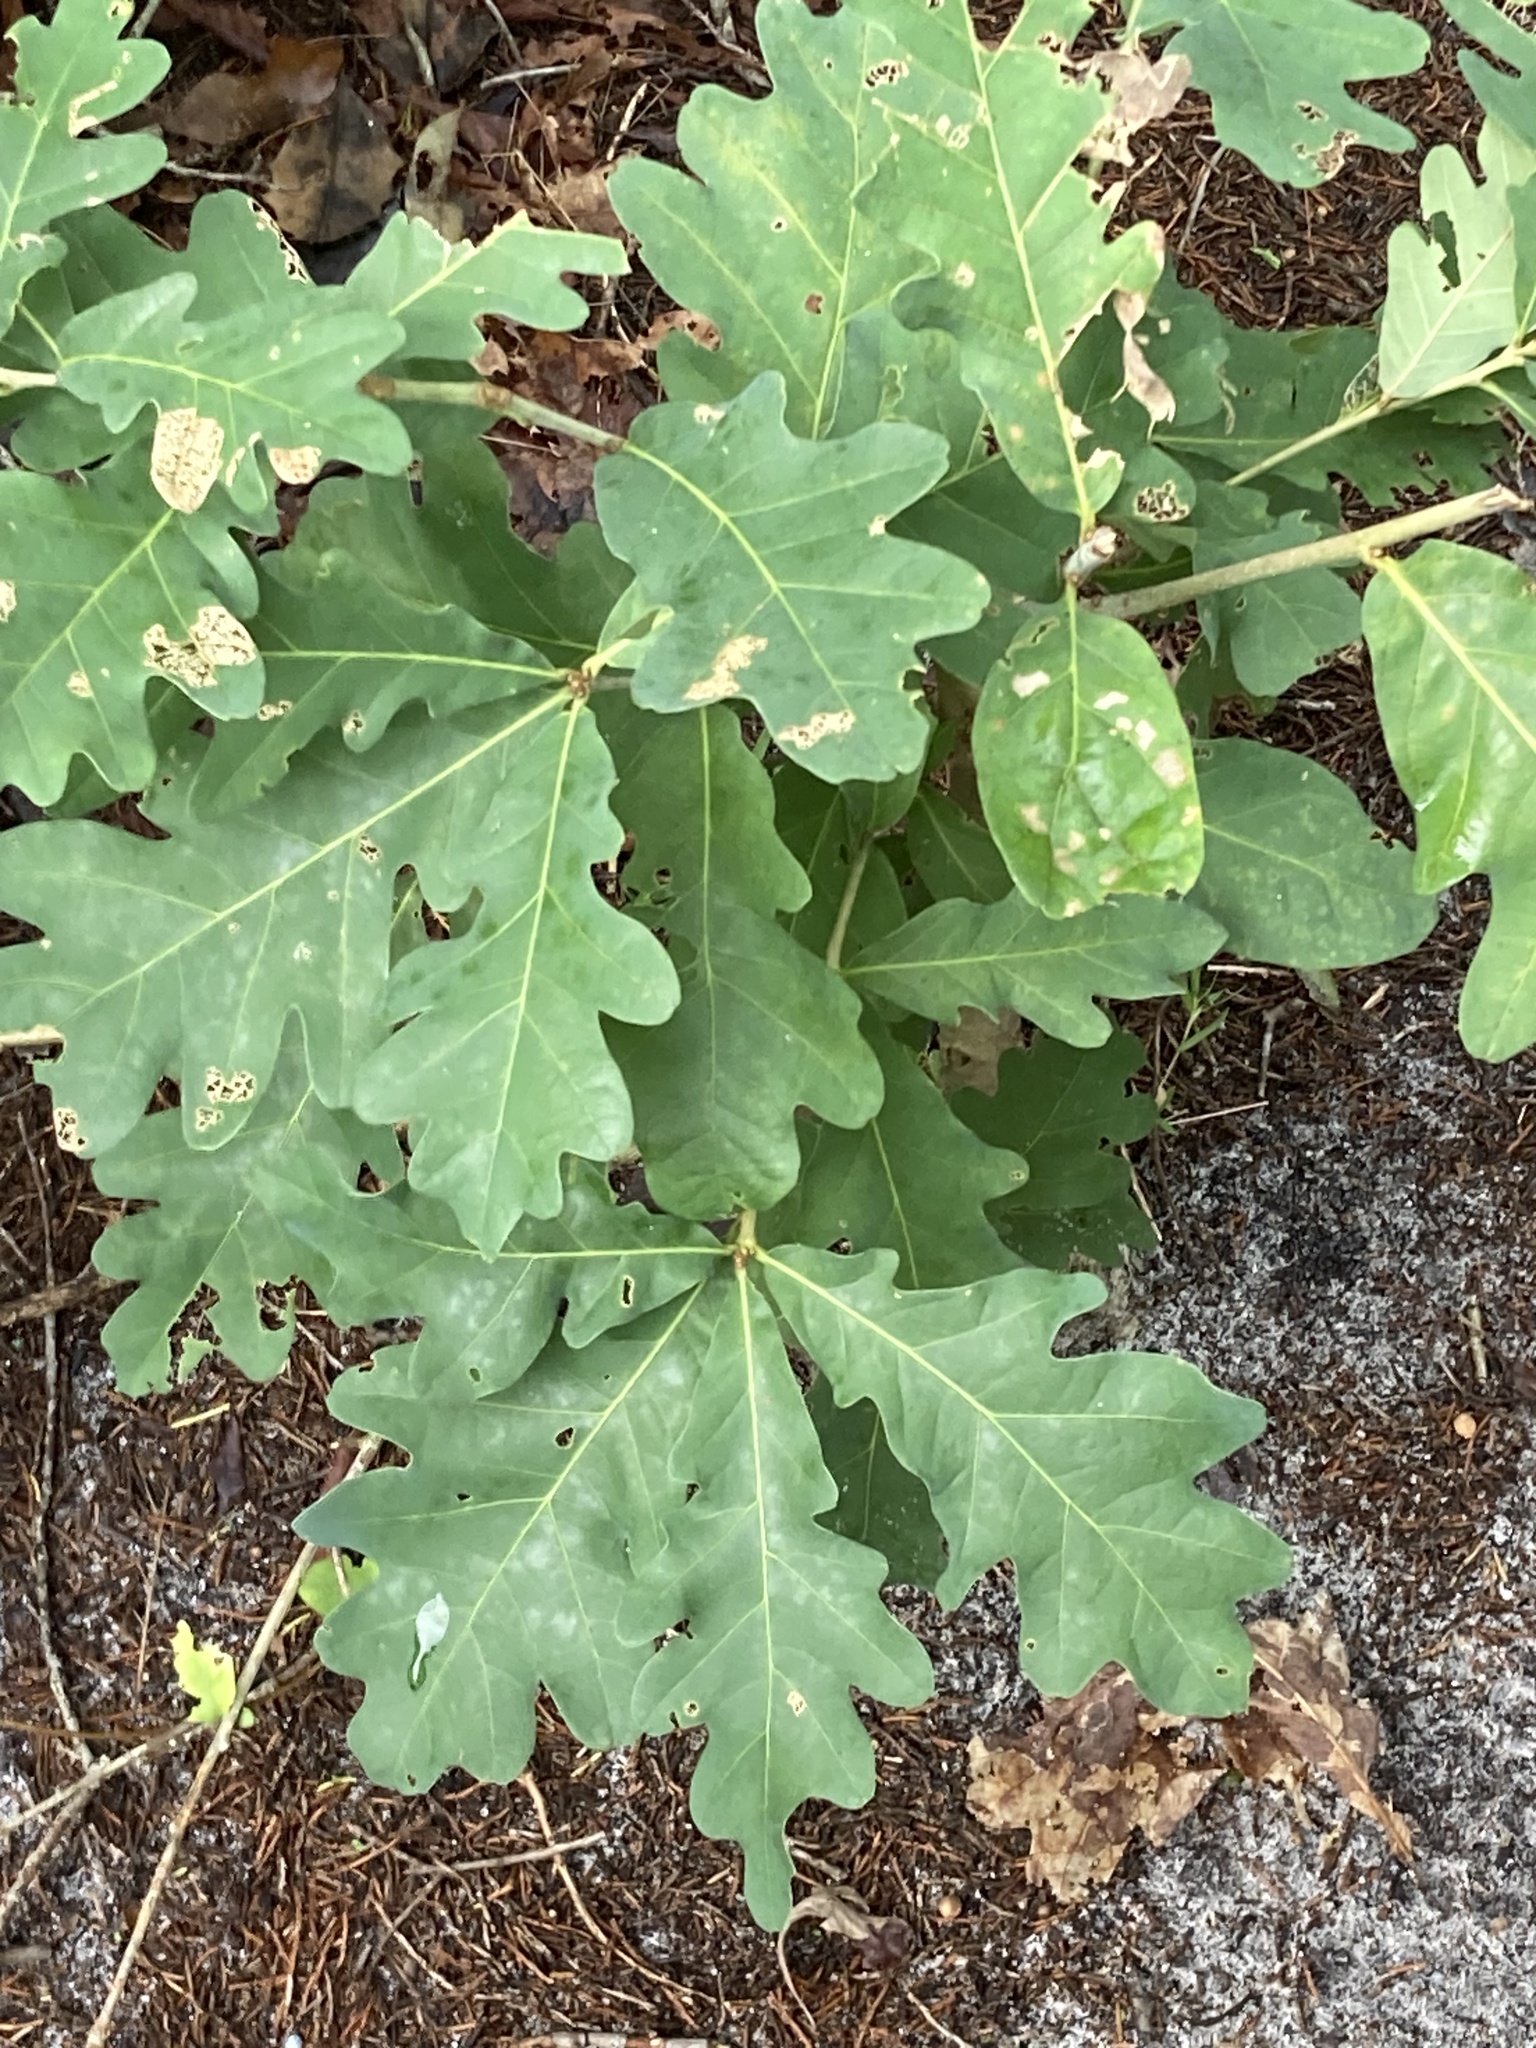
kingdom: Plantae
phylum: Tracheophyta
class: Magnoliopsida
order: Fagales
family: Fagaceae
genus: Quercus
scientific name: Quercus alba
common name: White oak
